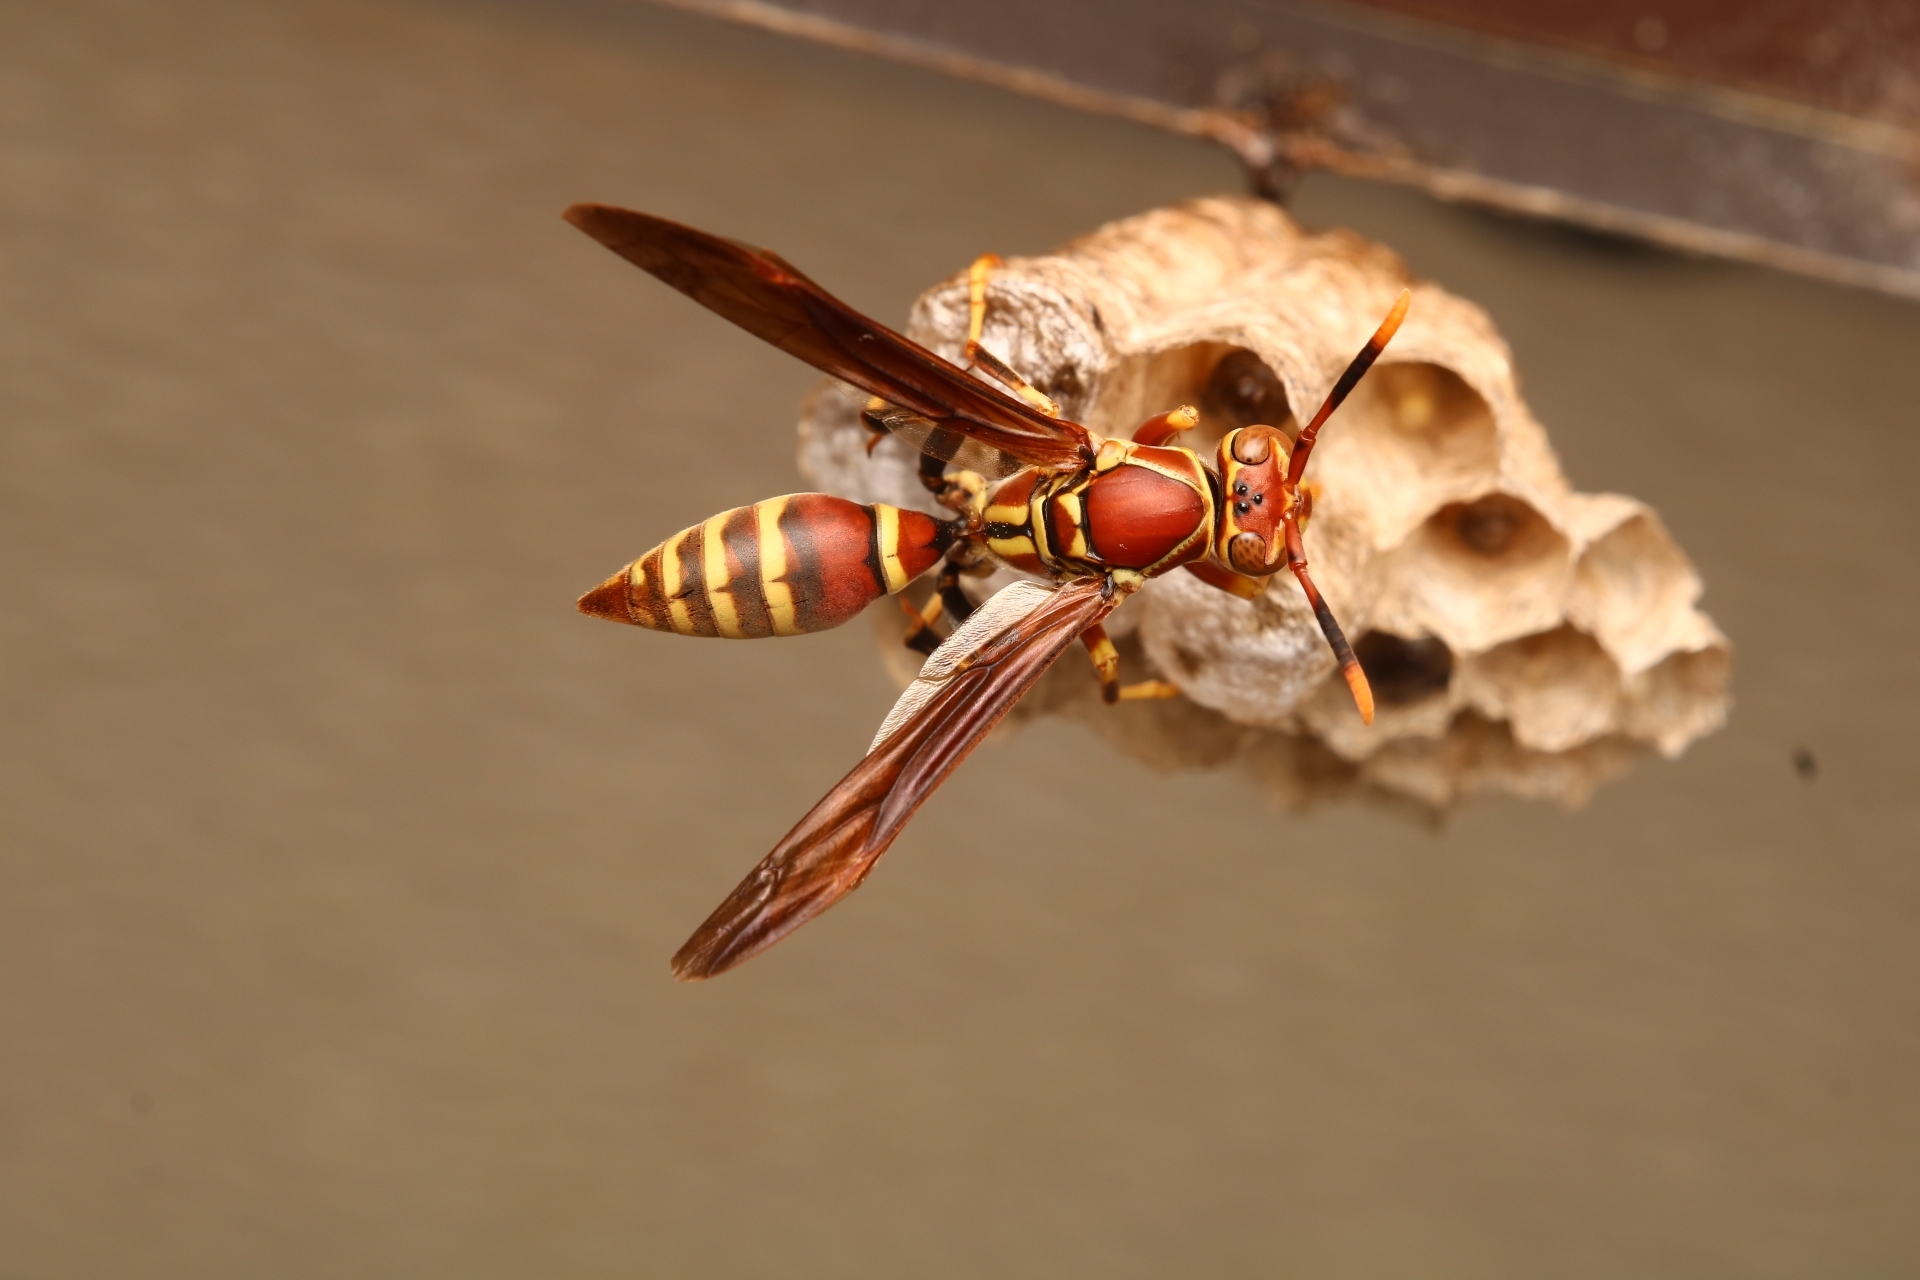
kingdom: Animalia
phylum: Arthropoda
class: Insecta
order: Hymenoptera
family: Eumenidae
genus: Polistes
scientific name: Polistes exclamans
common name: Paper wasp
